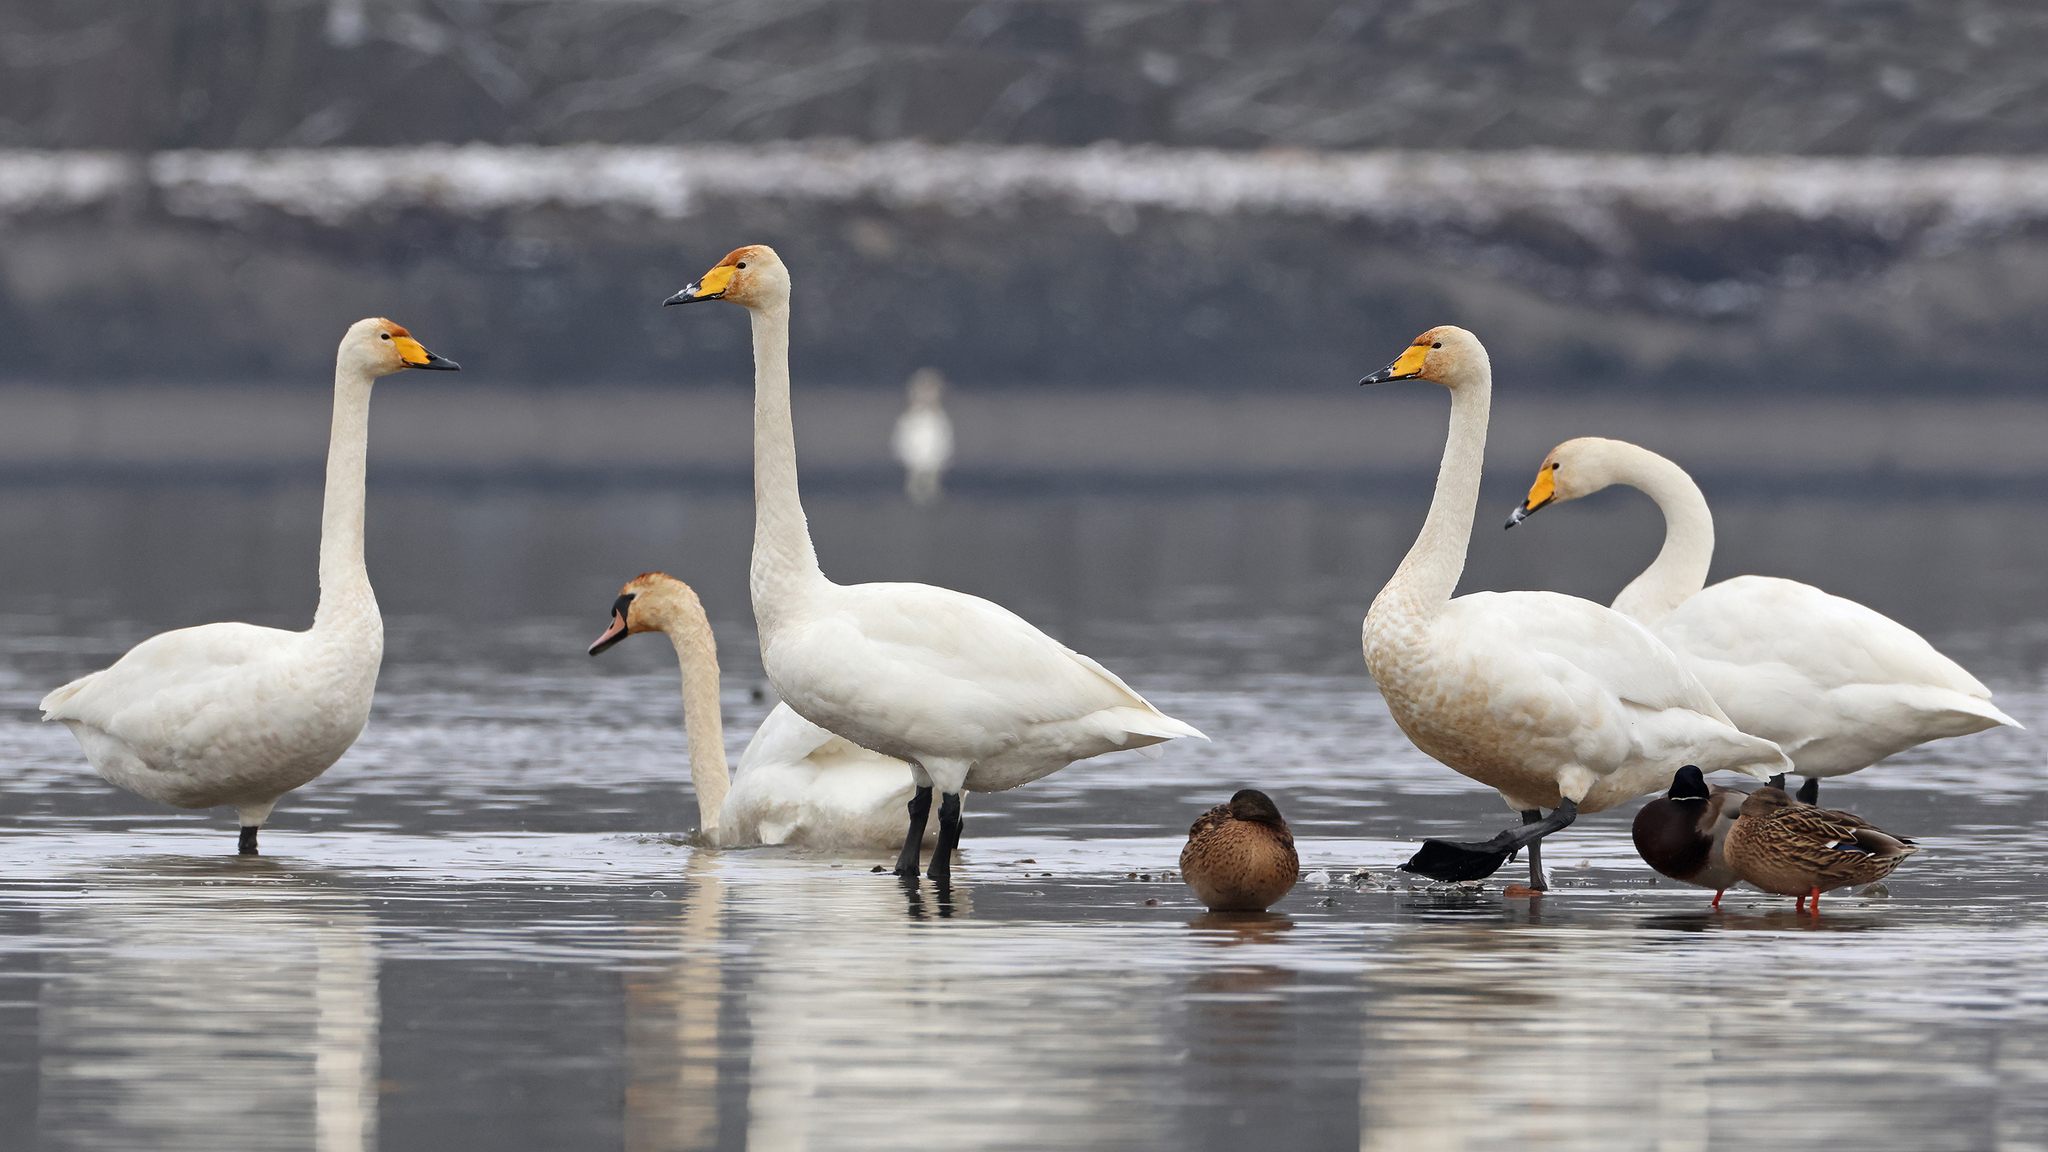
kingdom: Animalia
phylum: Chordata
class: Aves
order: Anseriformes
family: Anatidae
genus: Cygnus
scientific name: Cygnus cygnus
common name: Whooper swan
